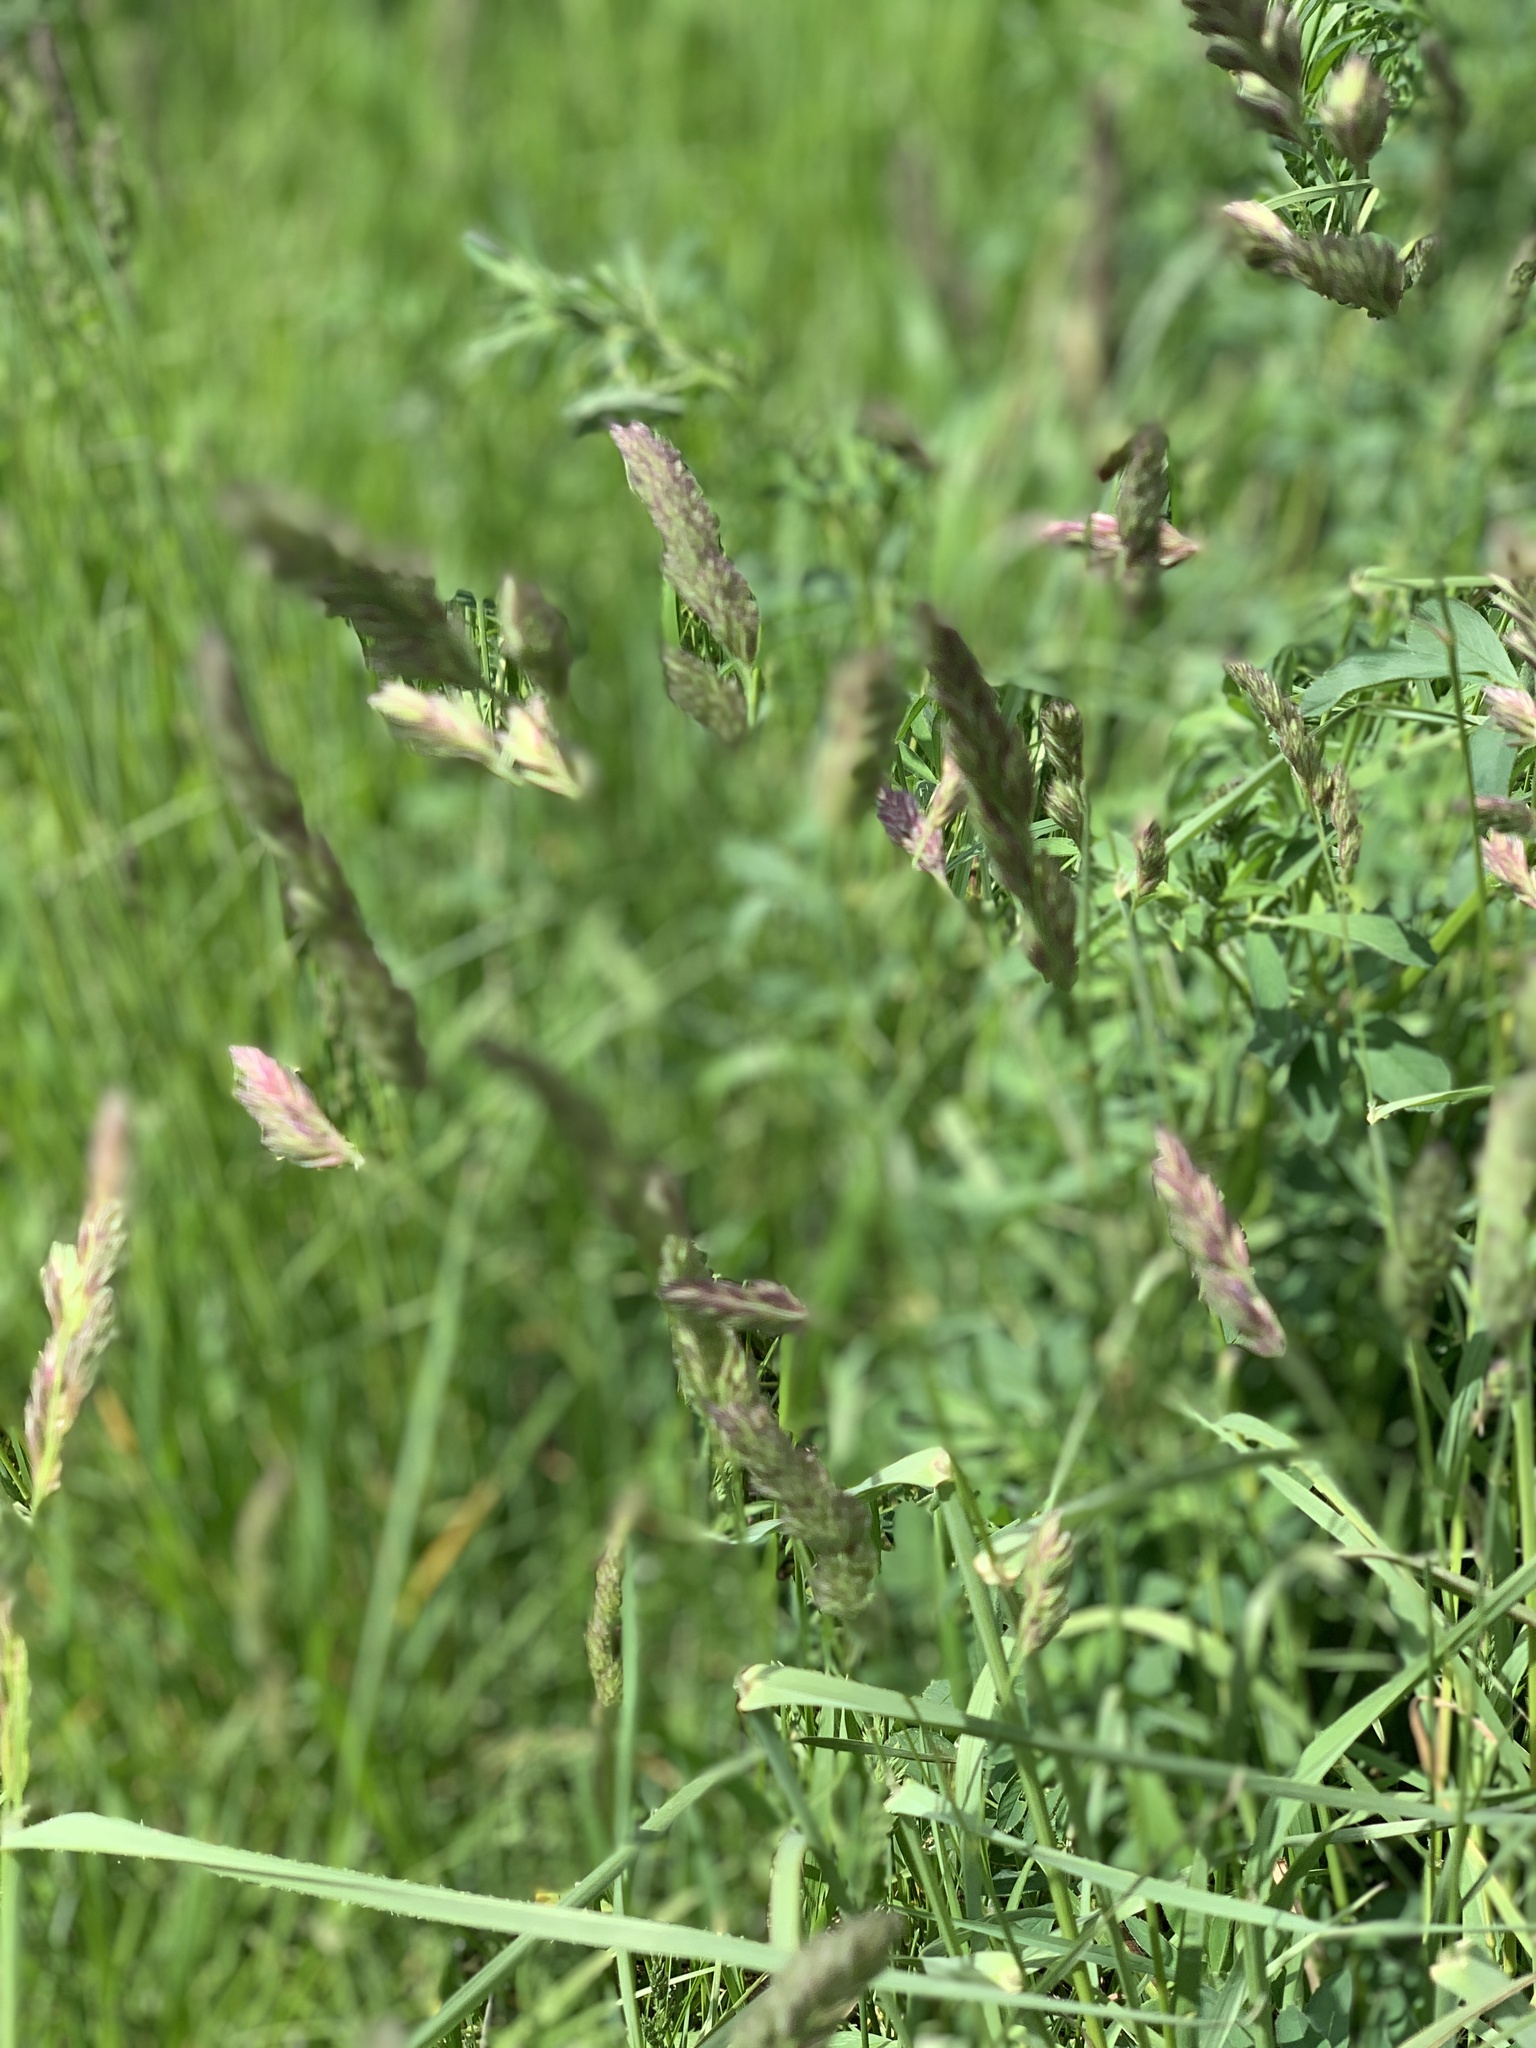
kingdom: Plantae
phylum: Tracheophyta
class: Liliopsida
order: Poales
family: Poaceae
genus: Dactylis
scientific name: Dactylis glomerata
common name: Orchardgrass
